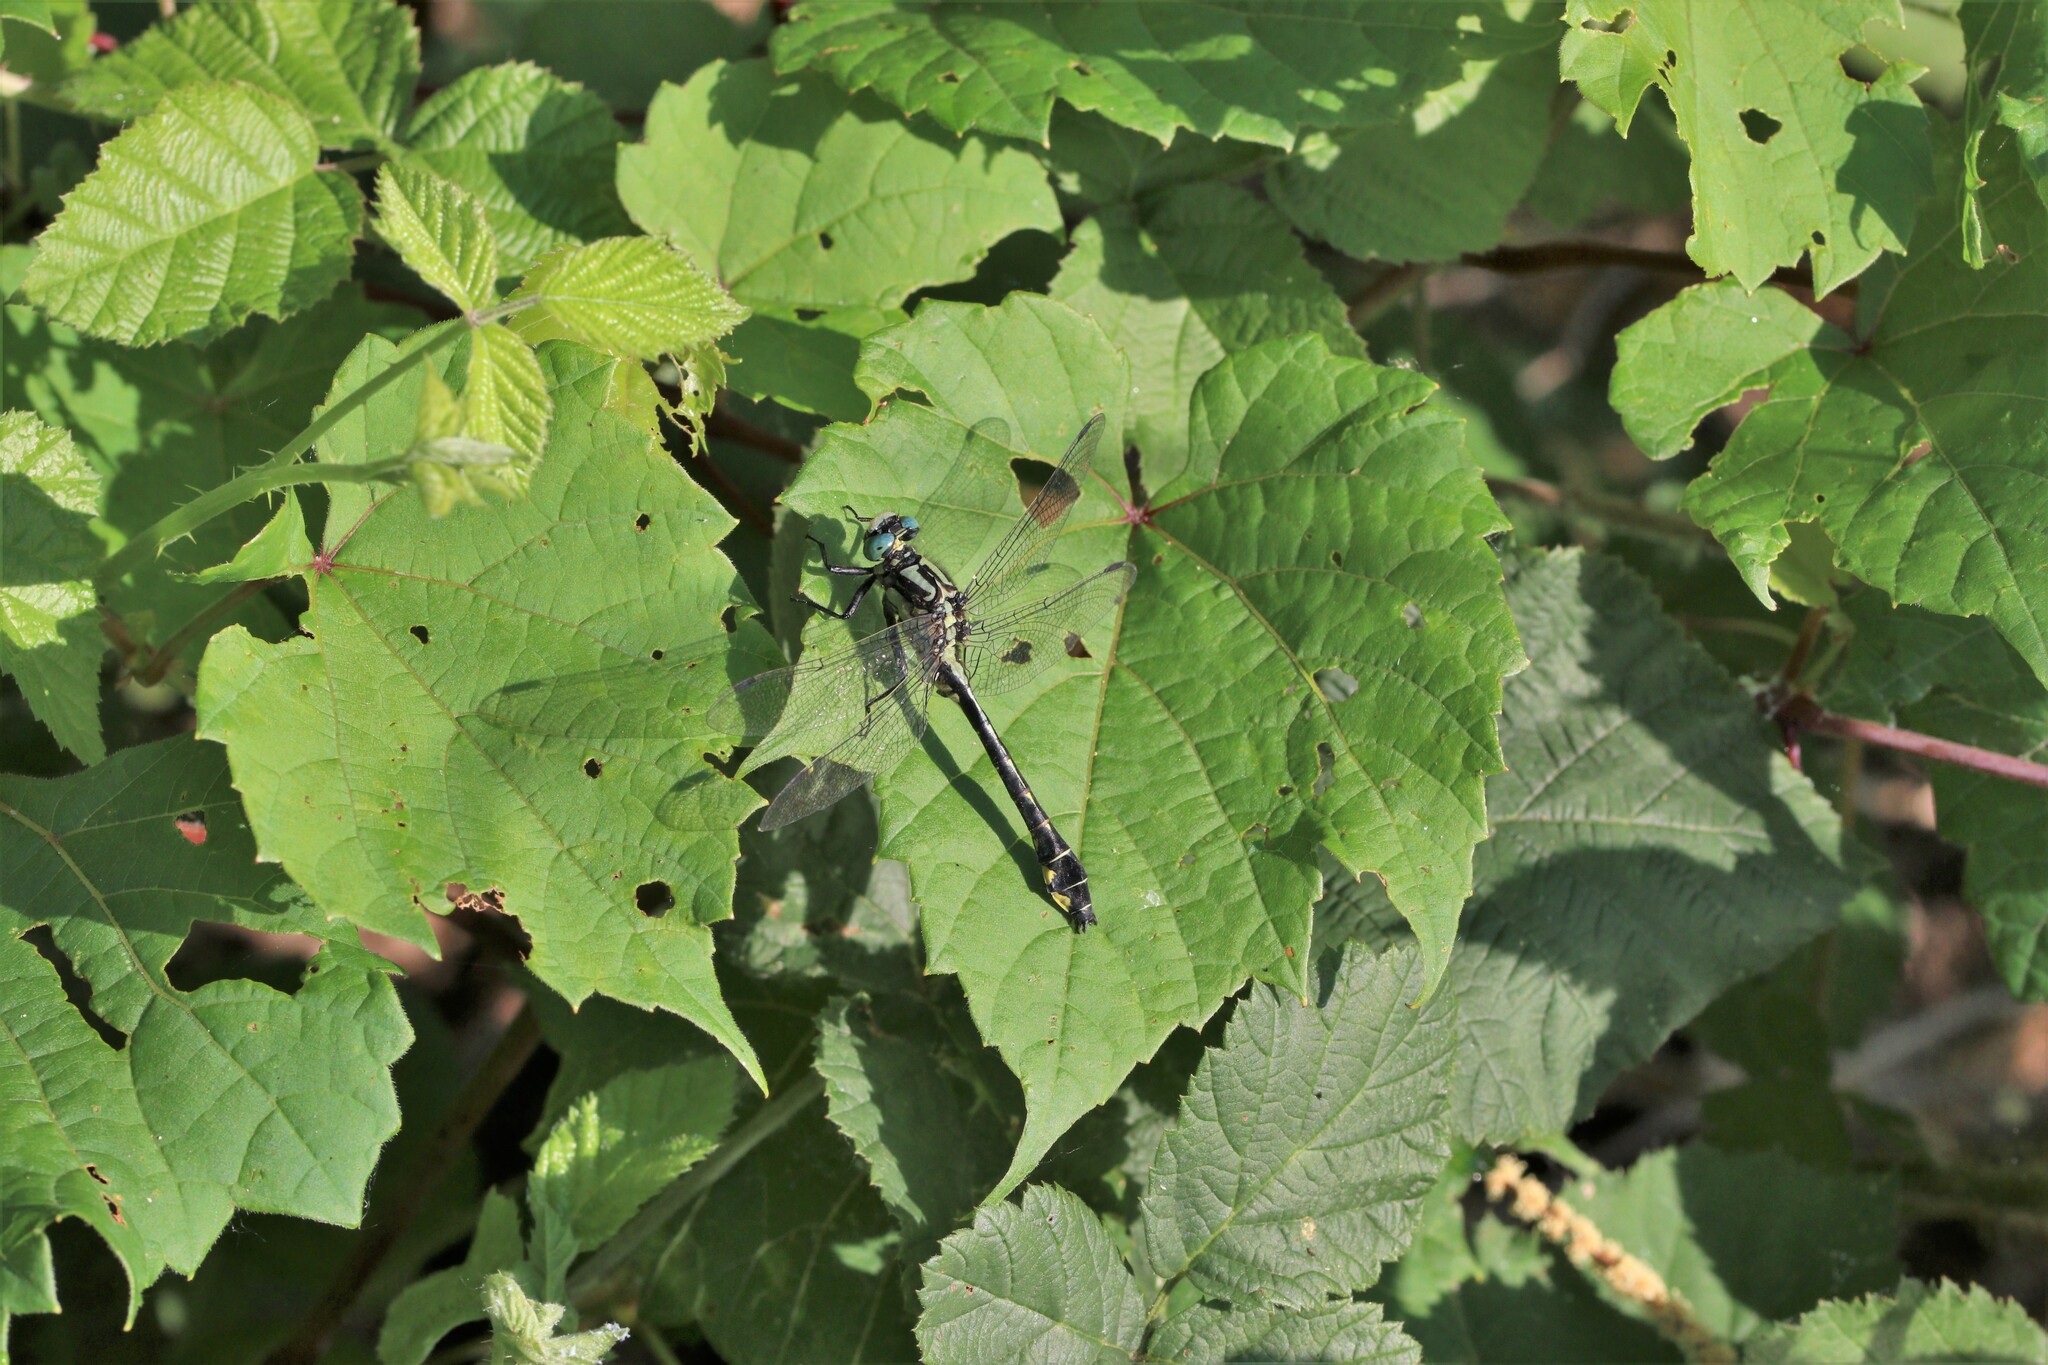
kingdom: Animalia
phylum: Arthropoda
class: Insecta
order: Odonata
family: Gomphidae
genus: Gomphus
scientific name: Gomphus vulgatissimus
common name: Club-tailed dragonfly
